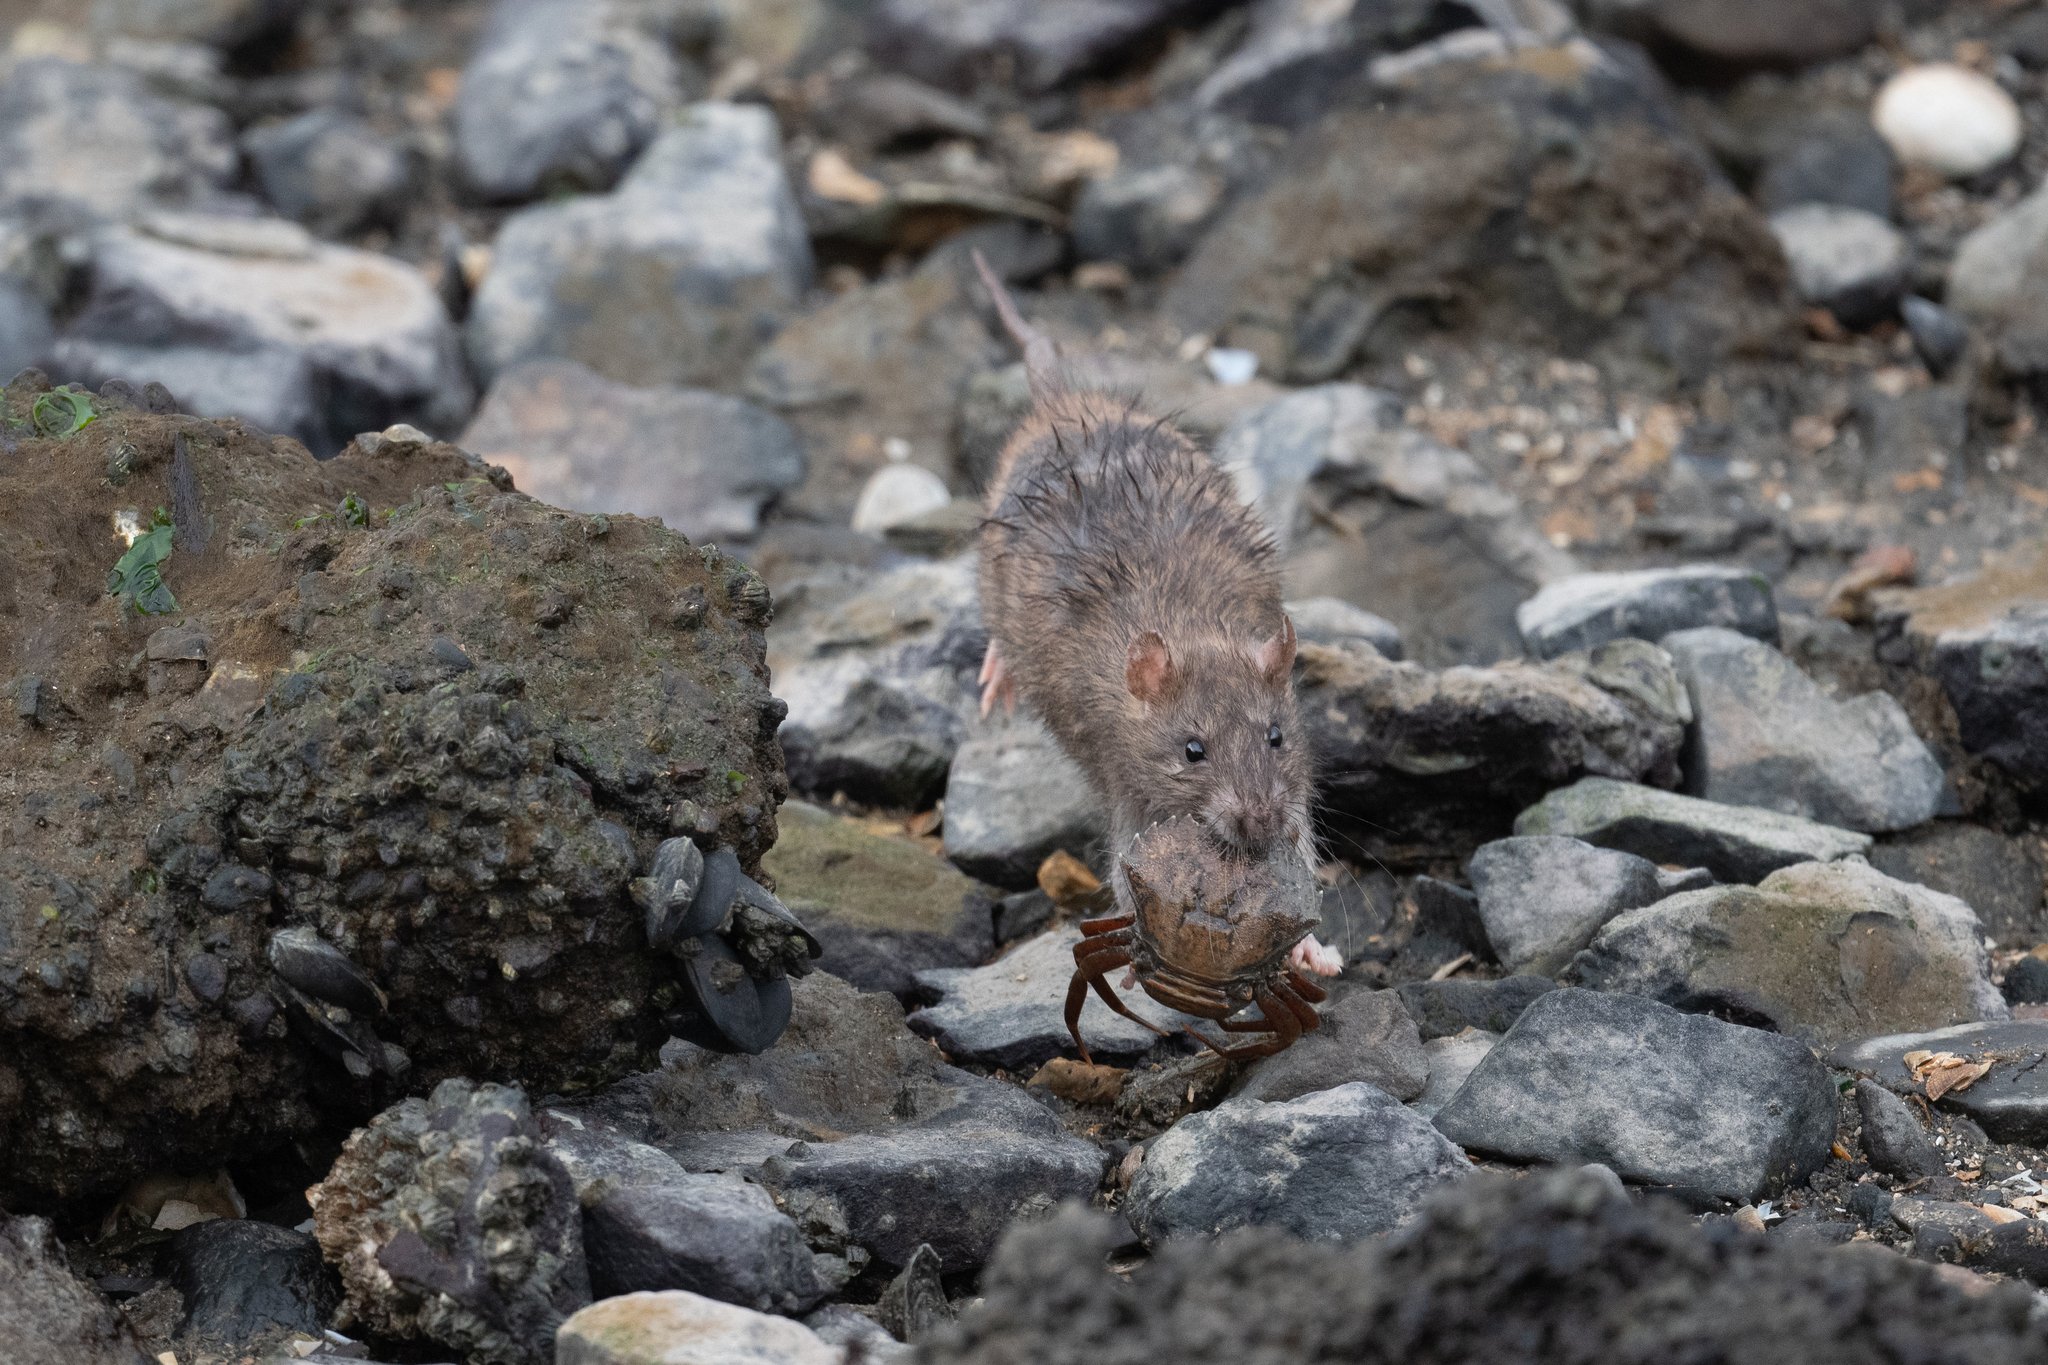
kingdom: Animalia
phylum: Chordata
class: Mammalia
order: Rodentia
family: Muridae
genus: Rattus
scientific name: Rattus norvegicus
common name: Brown rat
